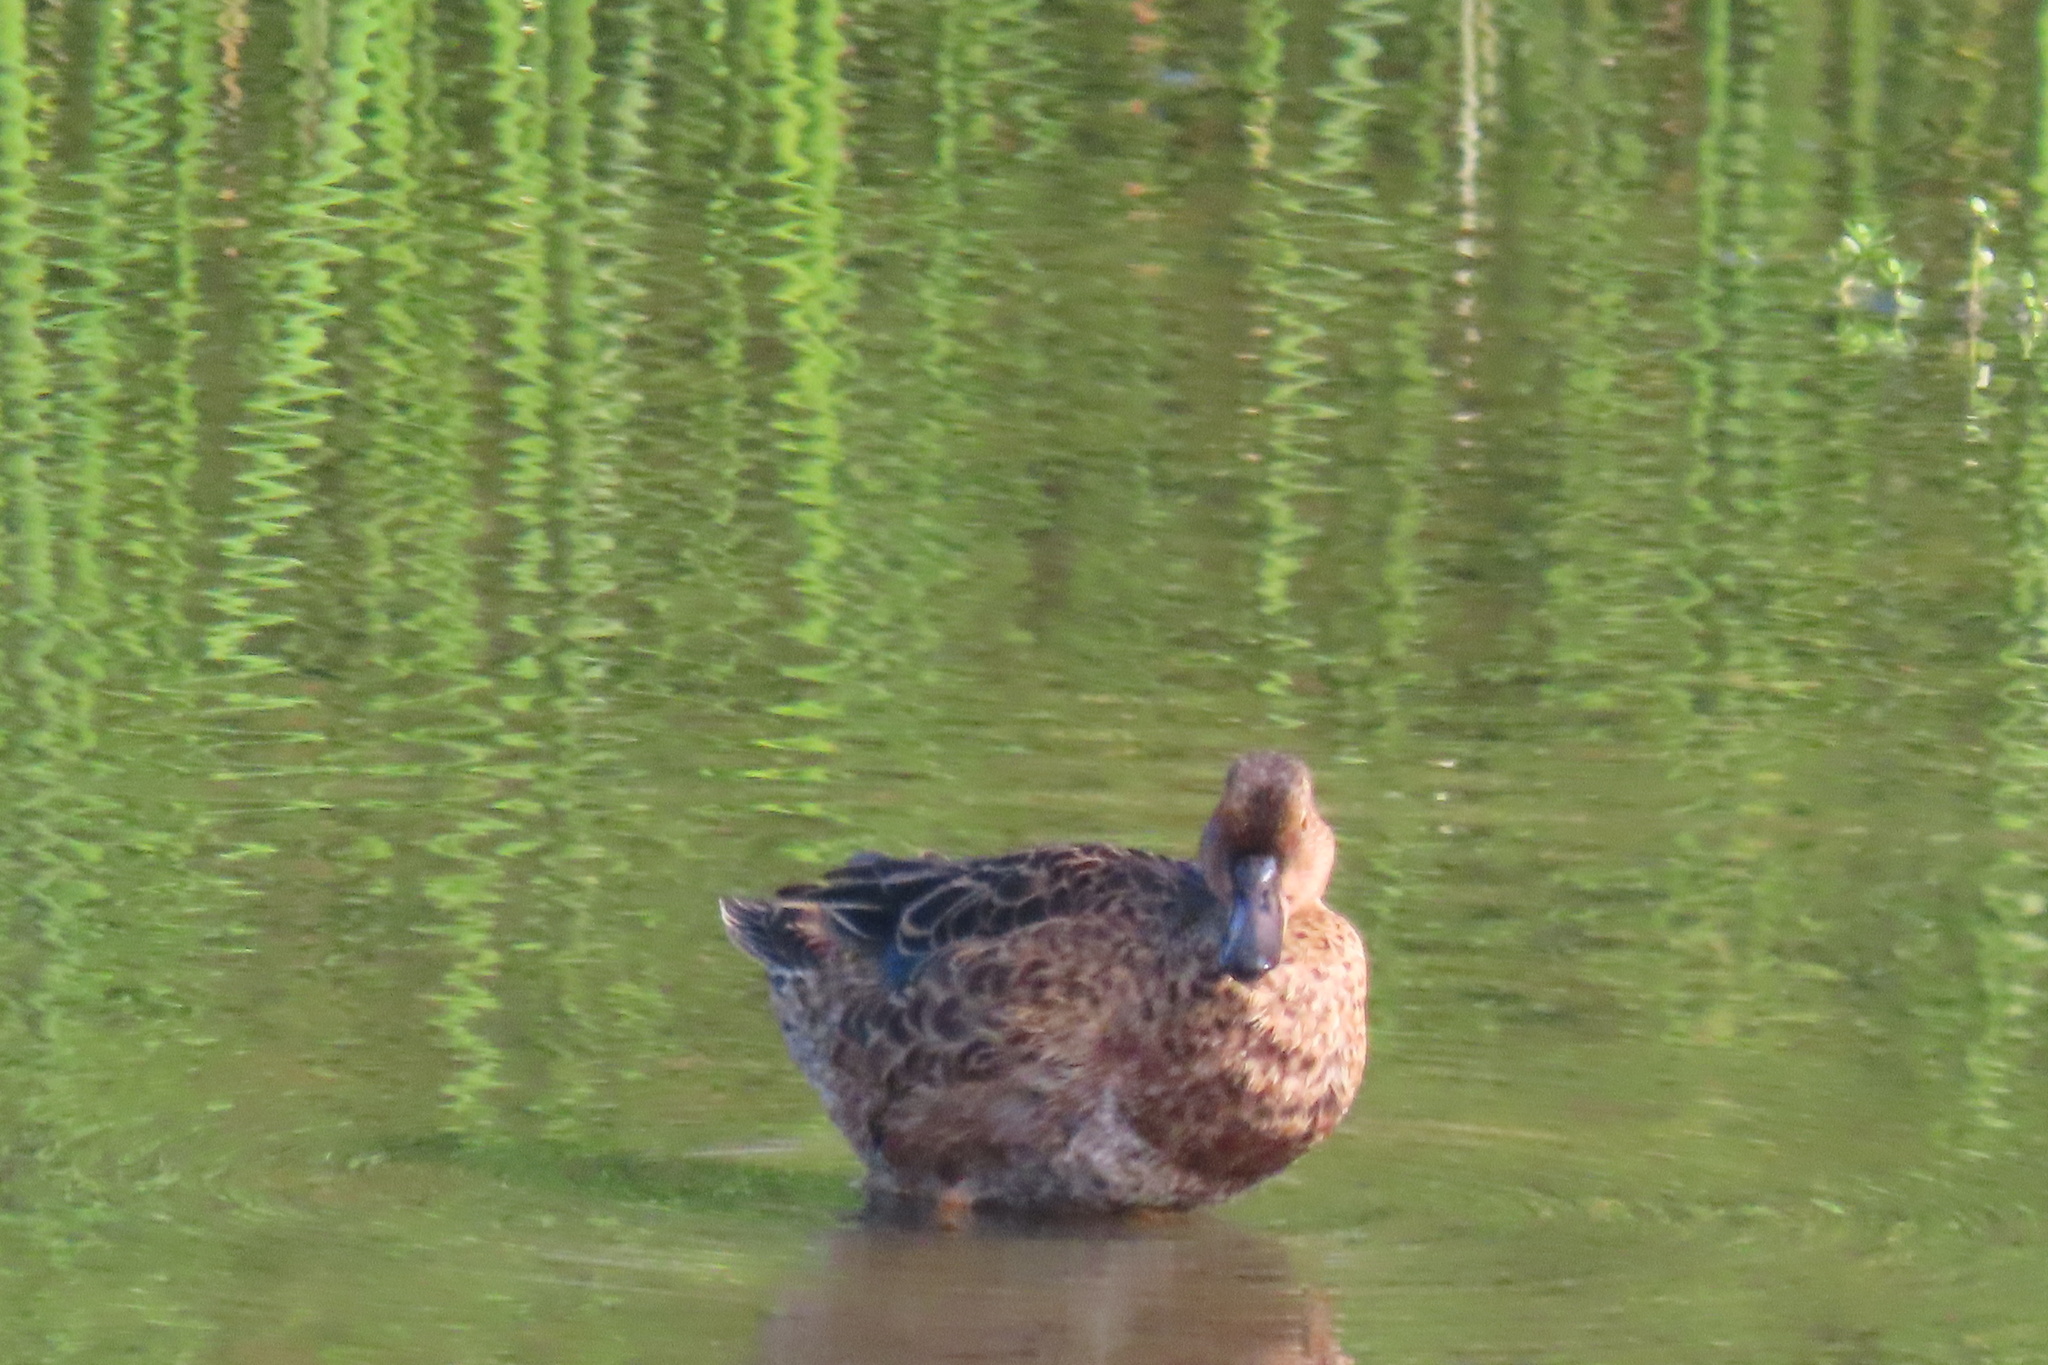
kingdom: Animalia
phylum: Chordata
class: Aves
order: Anseriformes
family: Anatidae
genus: Spatula
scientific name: Spatula cyanoptera
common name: Cinnamon teal
